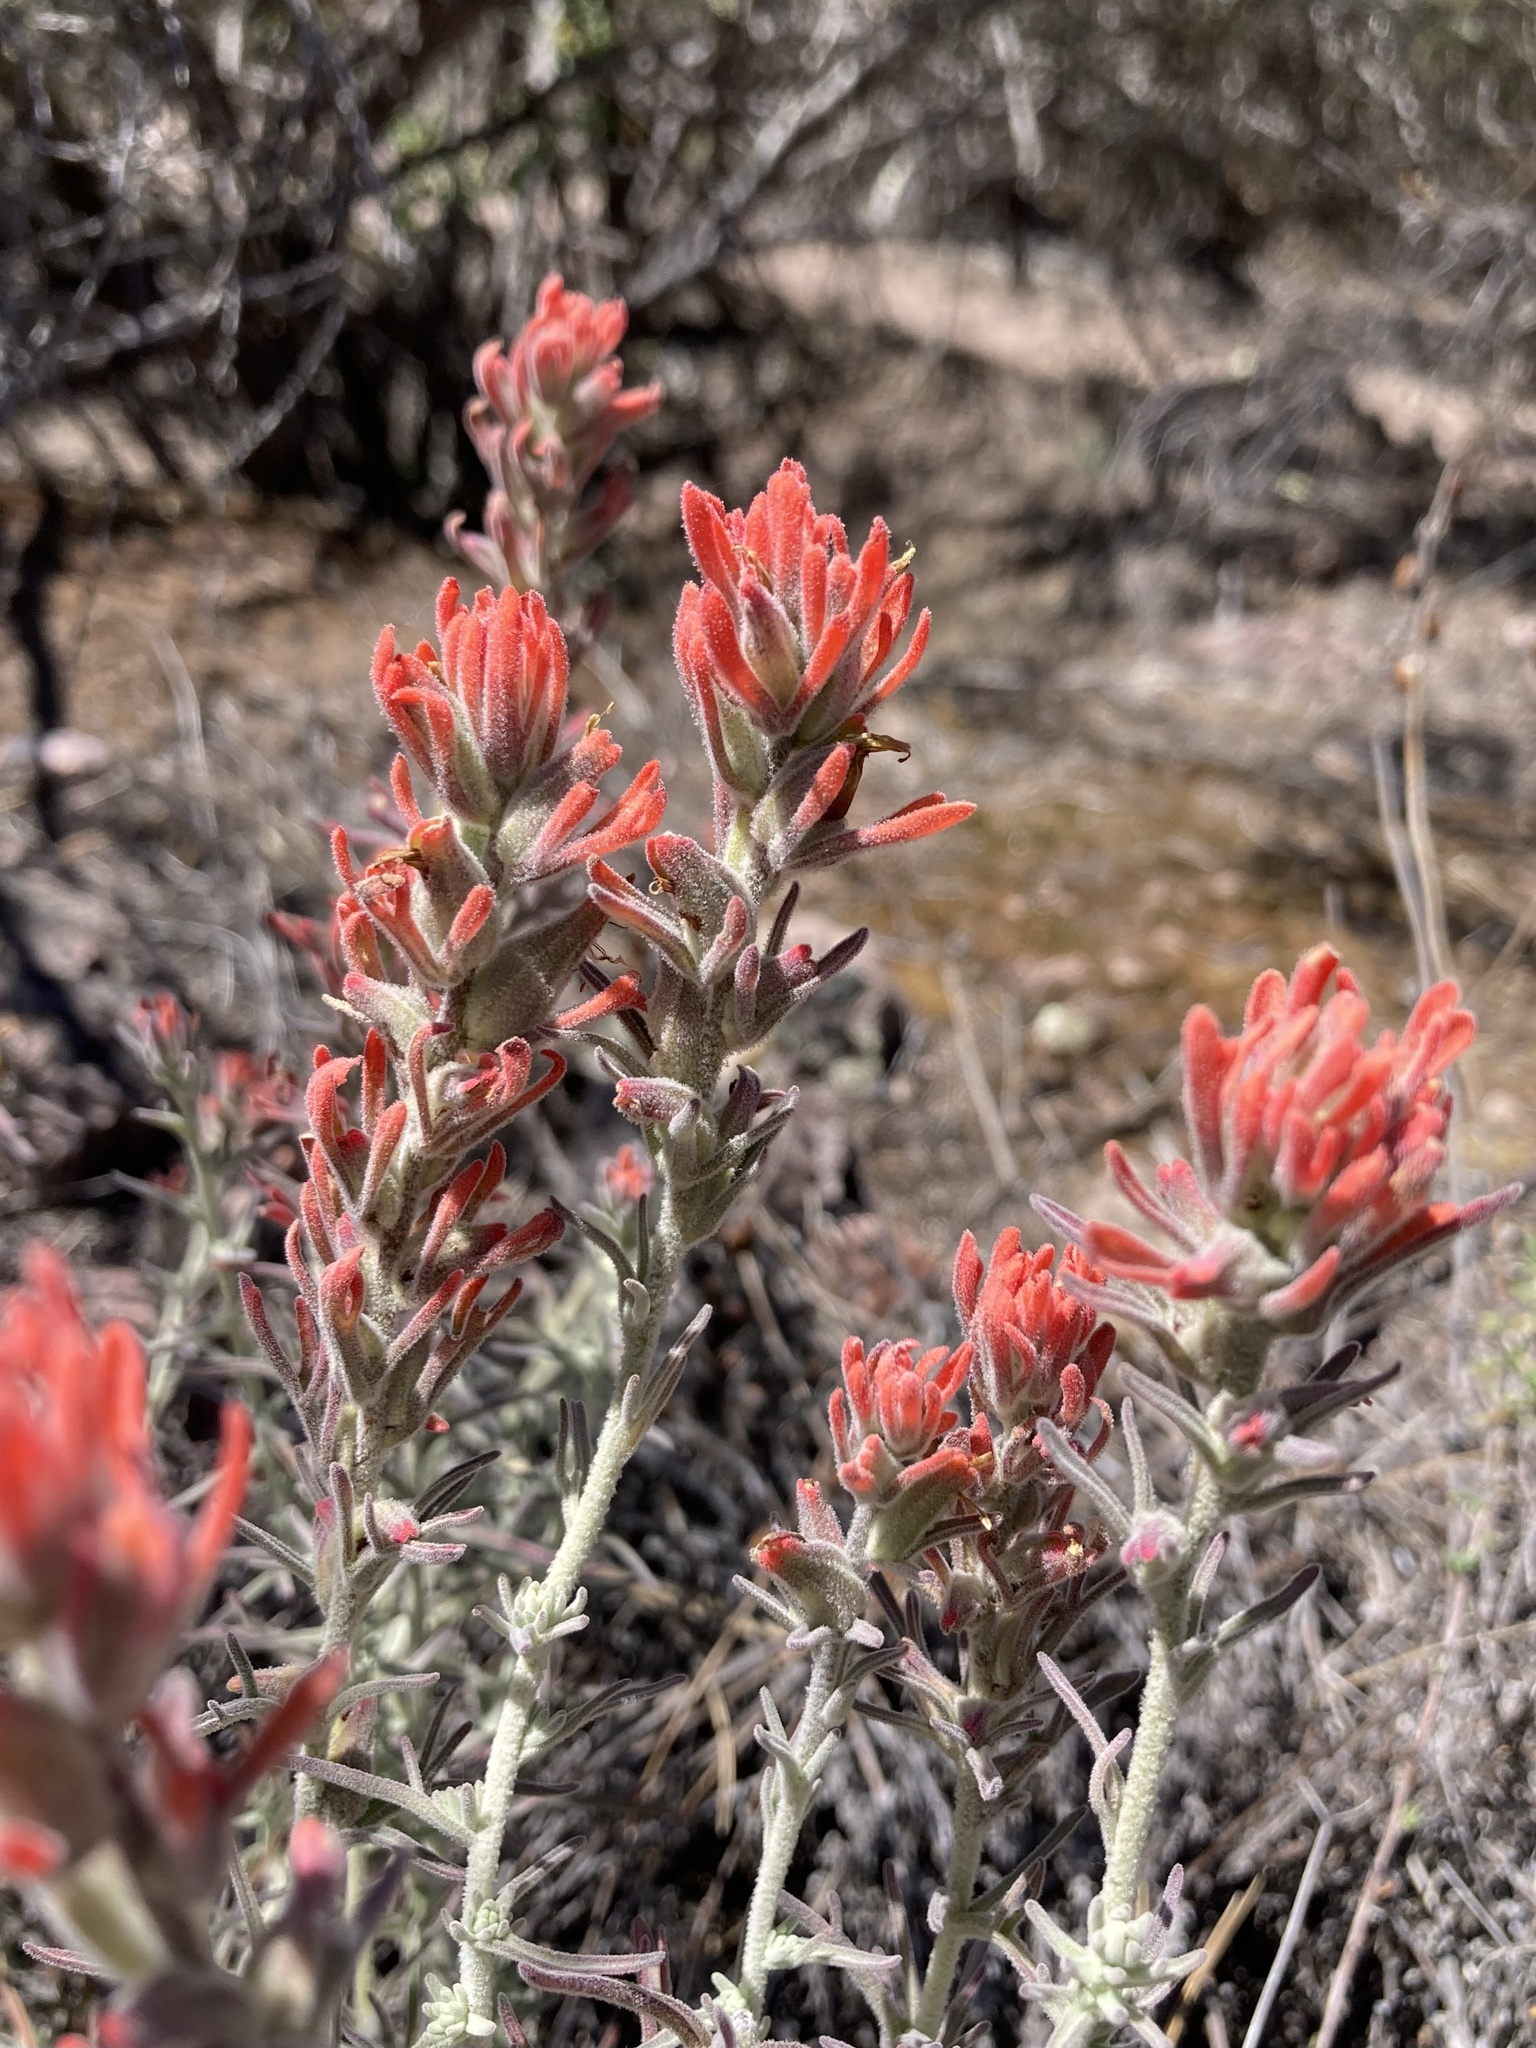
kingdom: Plantae
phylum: Tracheophyta
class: Magnoliopsida
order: Lamiales
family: Orobanchaceae
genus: Castilleja
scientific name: Castilleja foliolosa
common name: Woolly indian paintbrush
